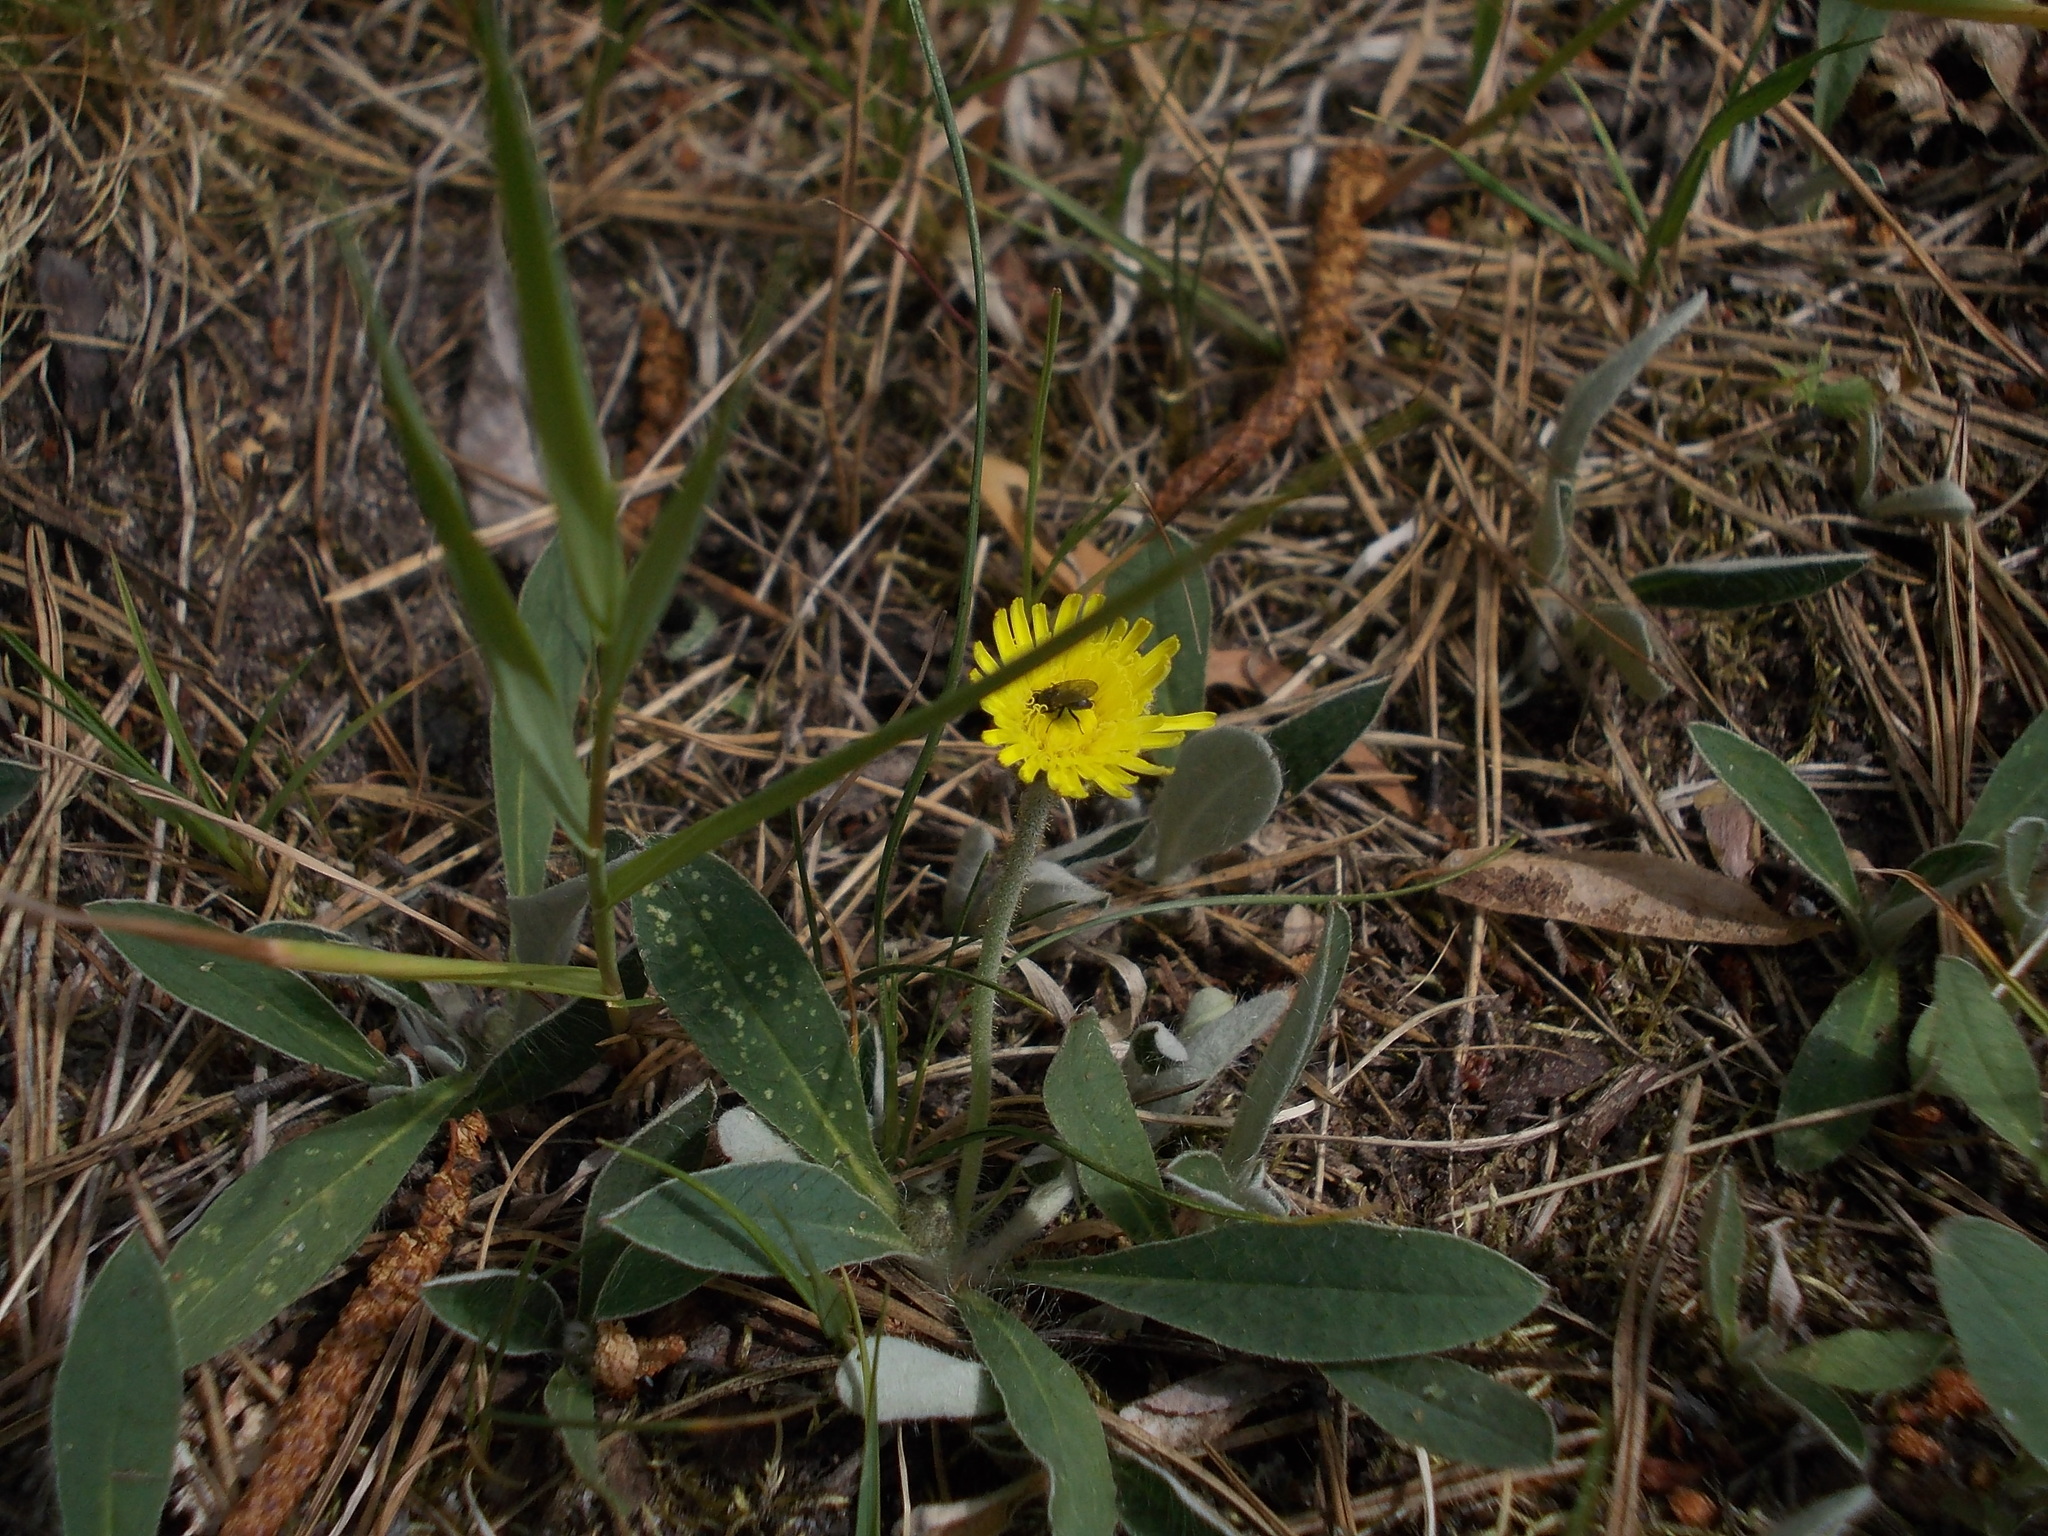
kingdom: Plantae
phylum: Tracheophyta
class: Magnoliopsida
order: Asterales
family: Asteraceae
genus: Pilosella
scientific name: Pilosella officinarum
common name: Mouse-ear hawkweed
